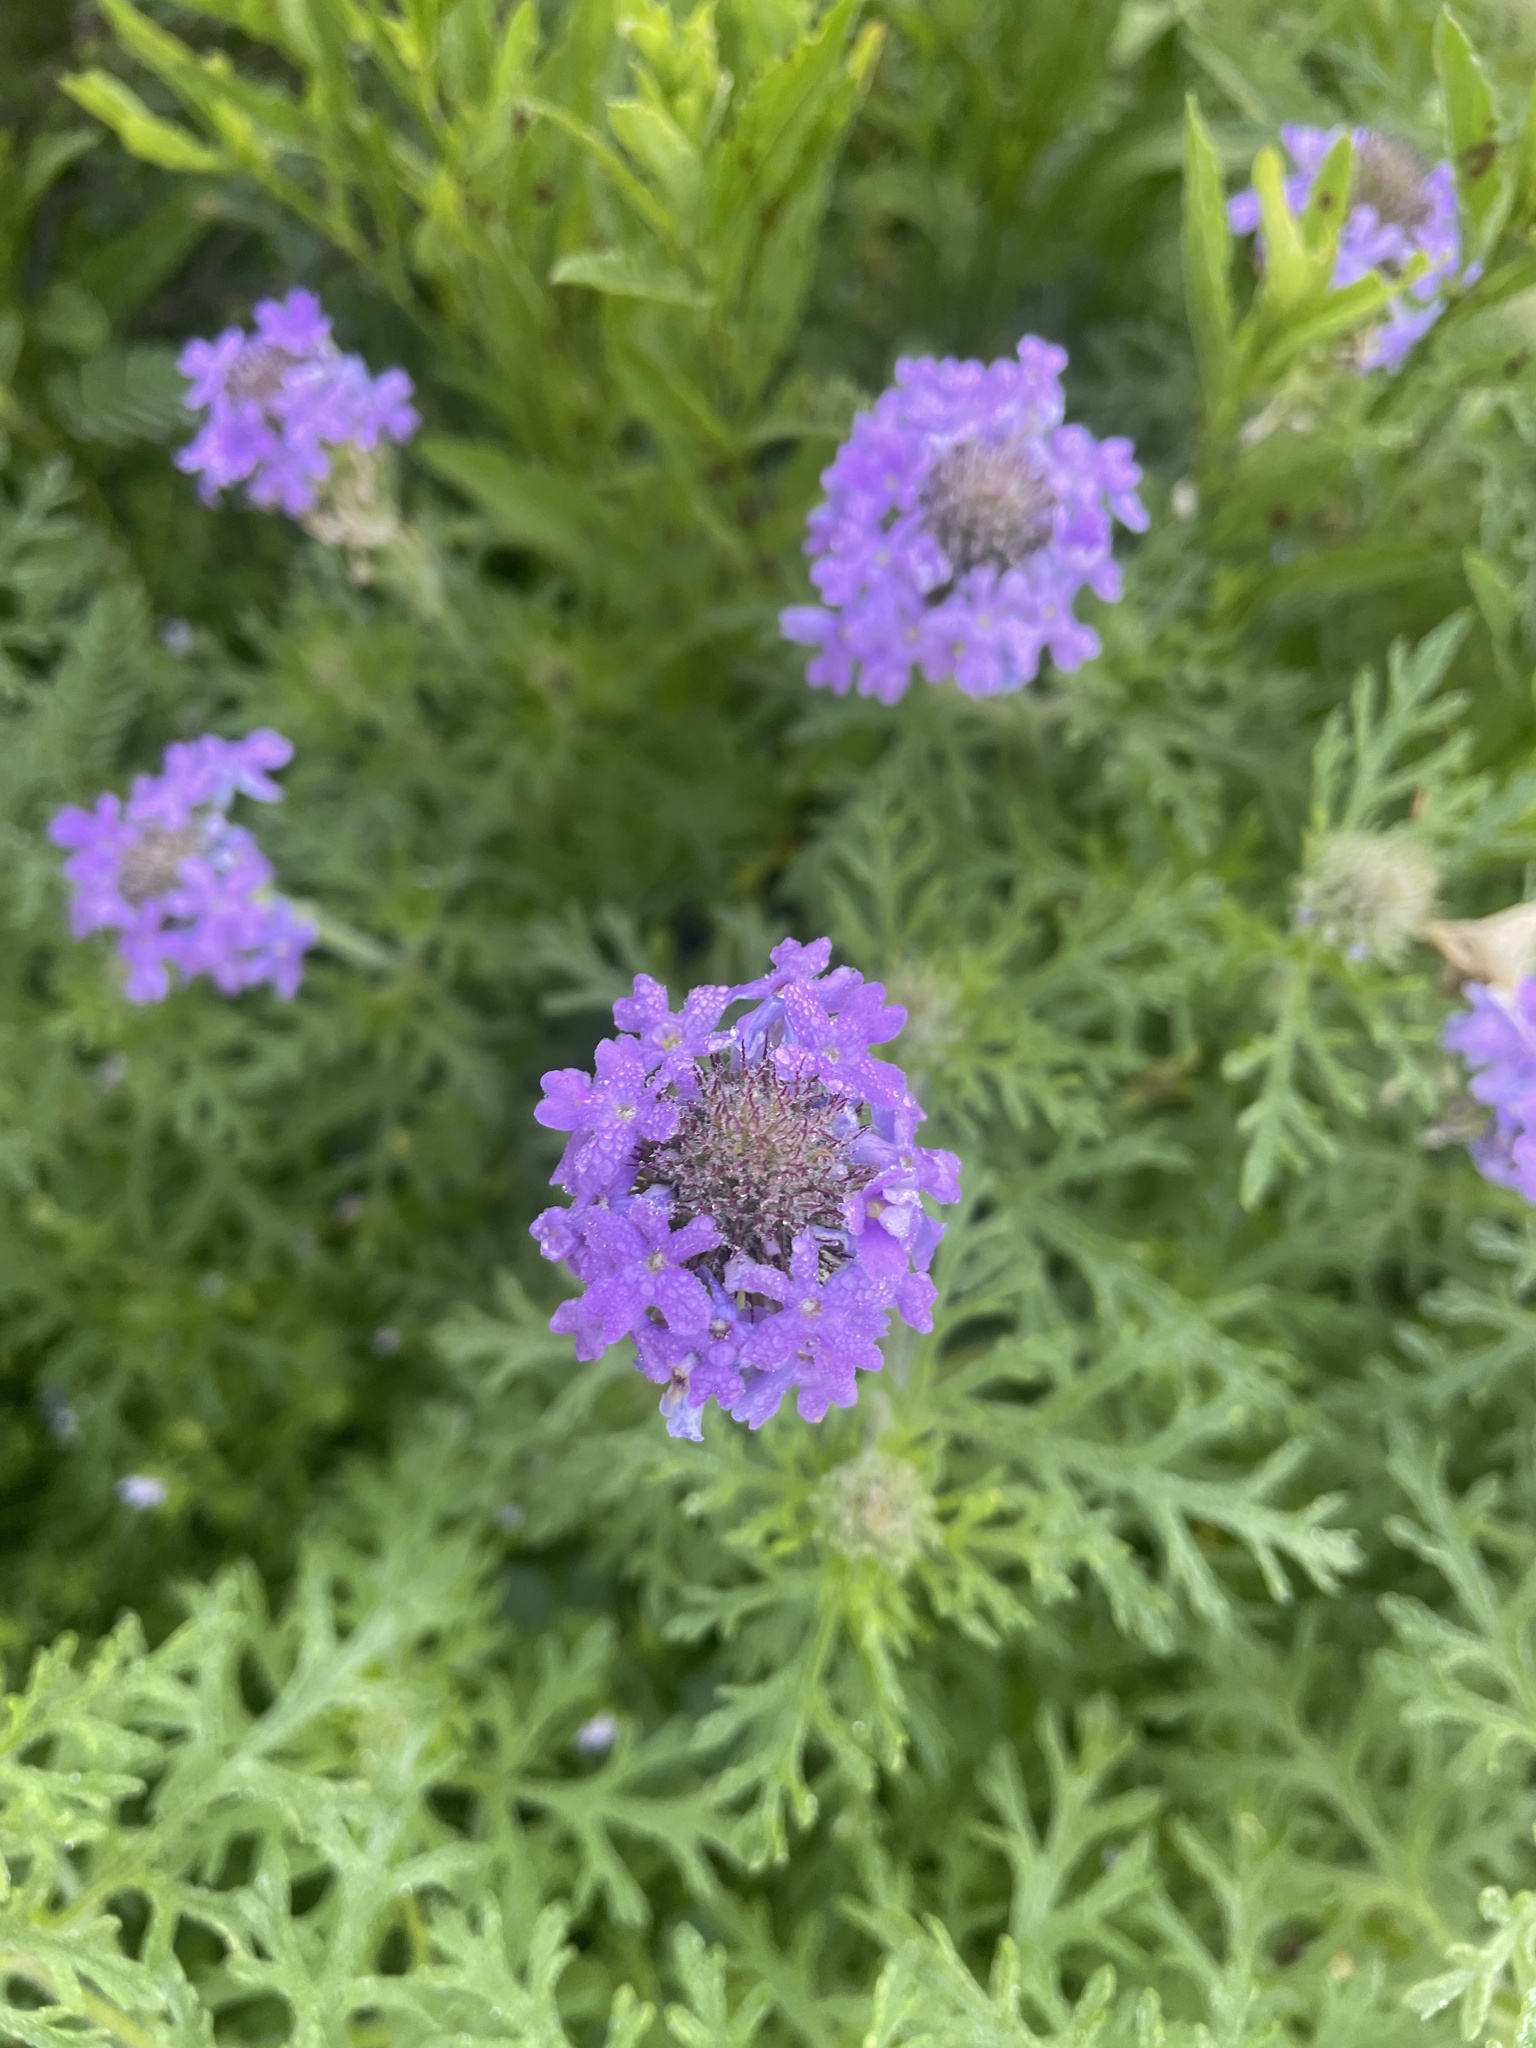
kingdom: Plantae
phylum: Tracheophyta
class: Magnoliopsida
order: Lamiales
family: Verbenaceae
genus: Verbena
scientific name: Verbena bipinnatifida
